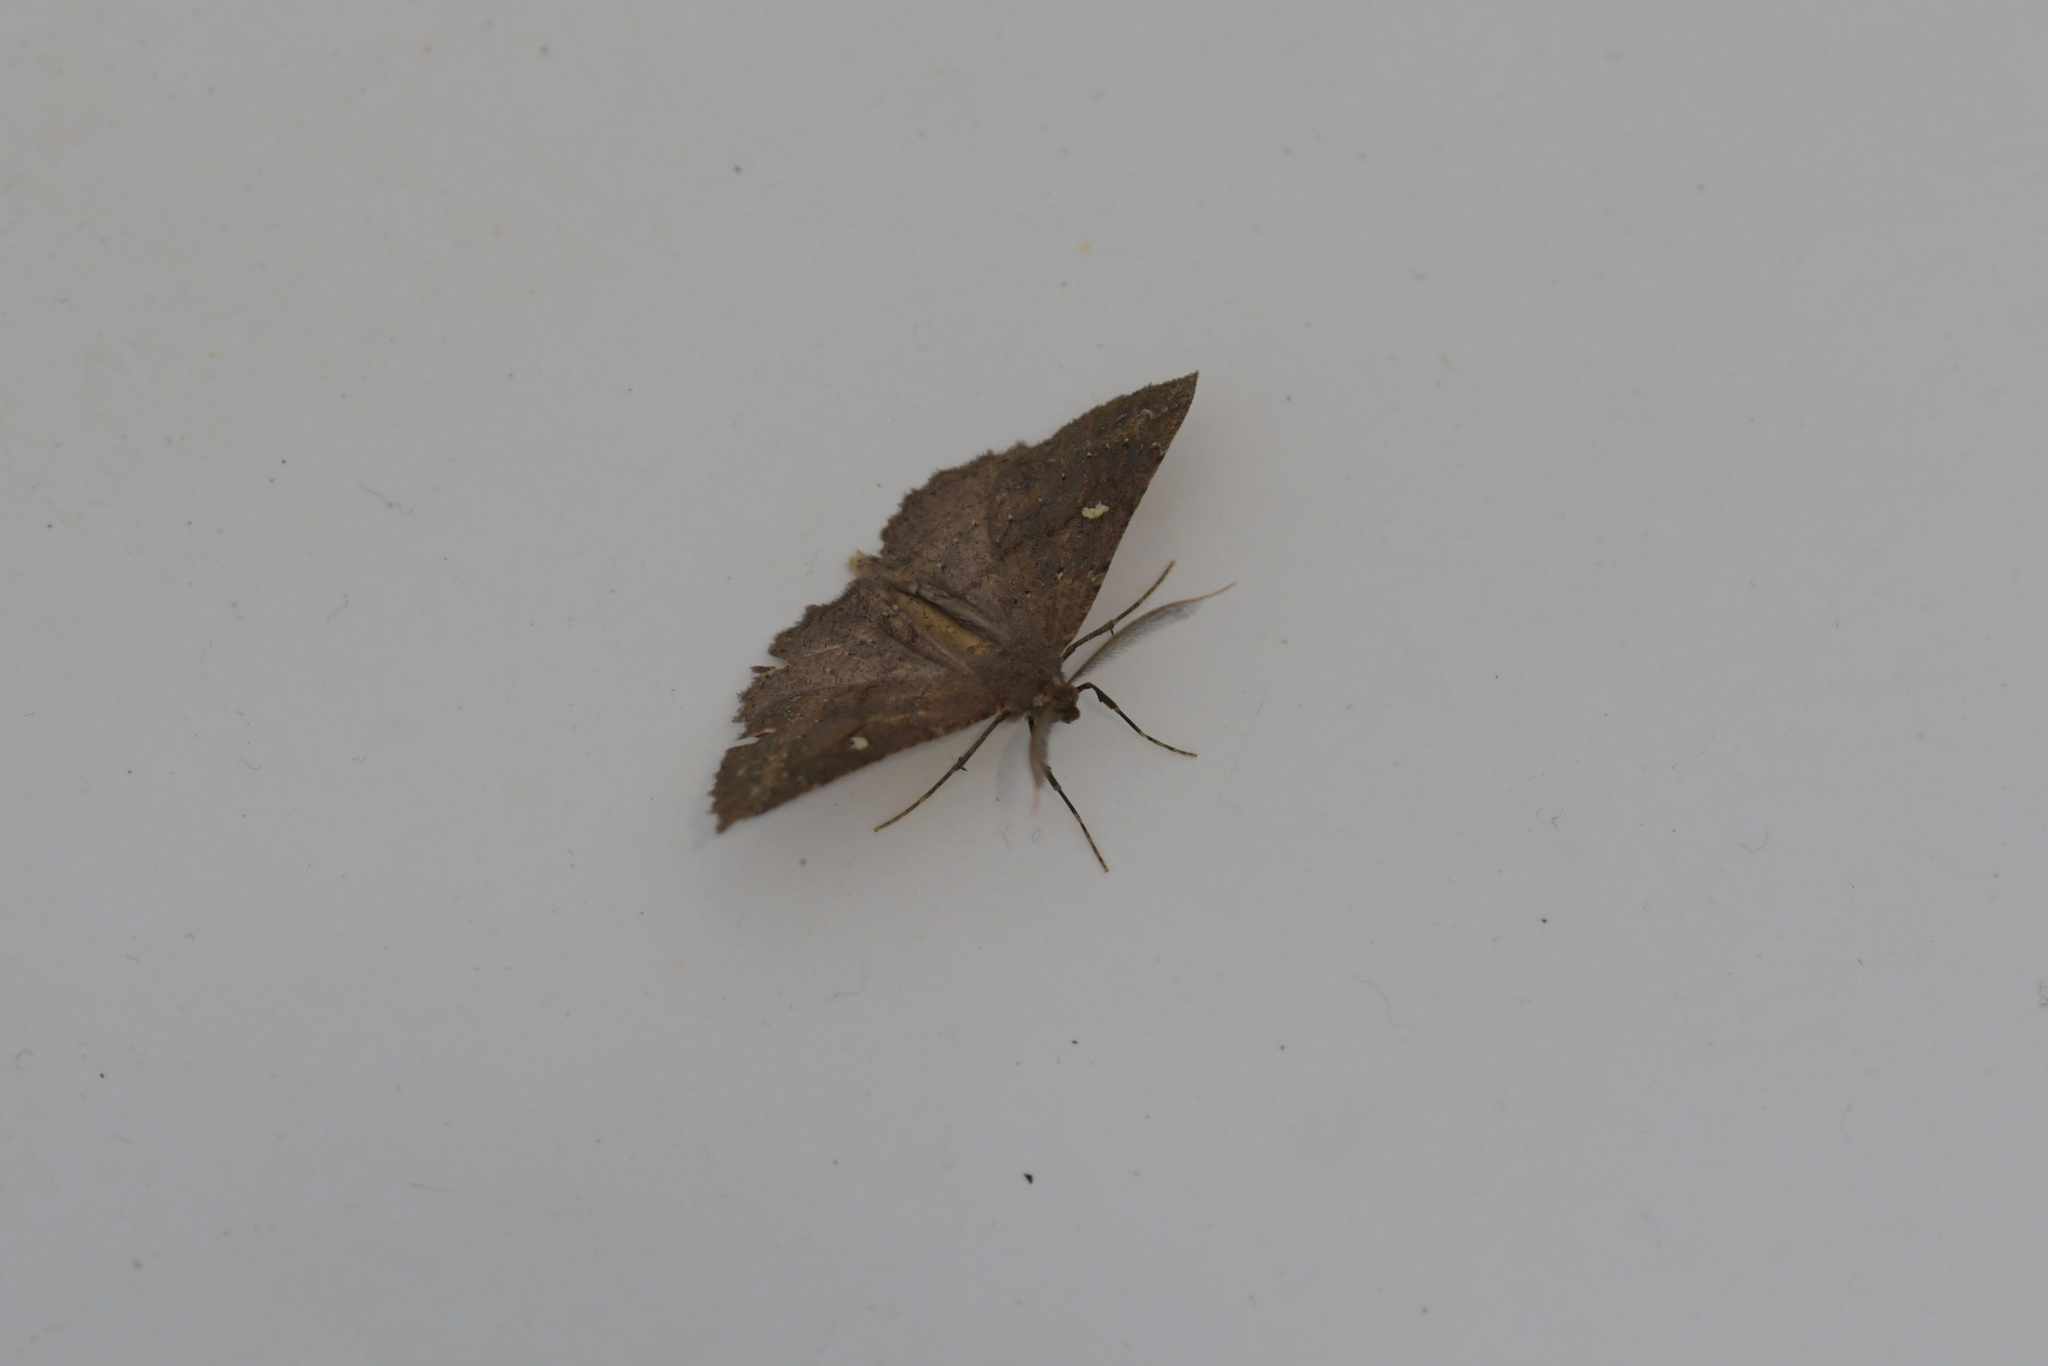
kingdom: Animalia
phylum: Arthropoda
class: Insecta
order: Lepidoptera
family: Geometridae
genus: Cleora
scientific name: Cleora scriptaria
